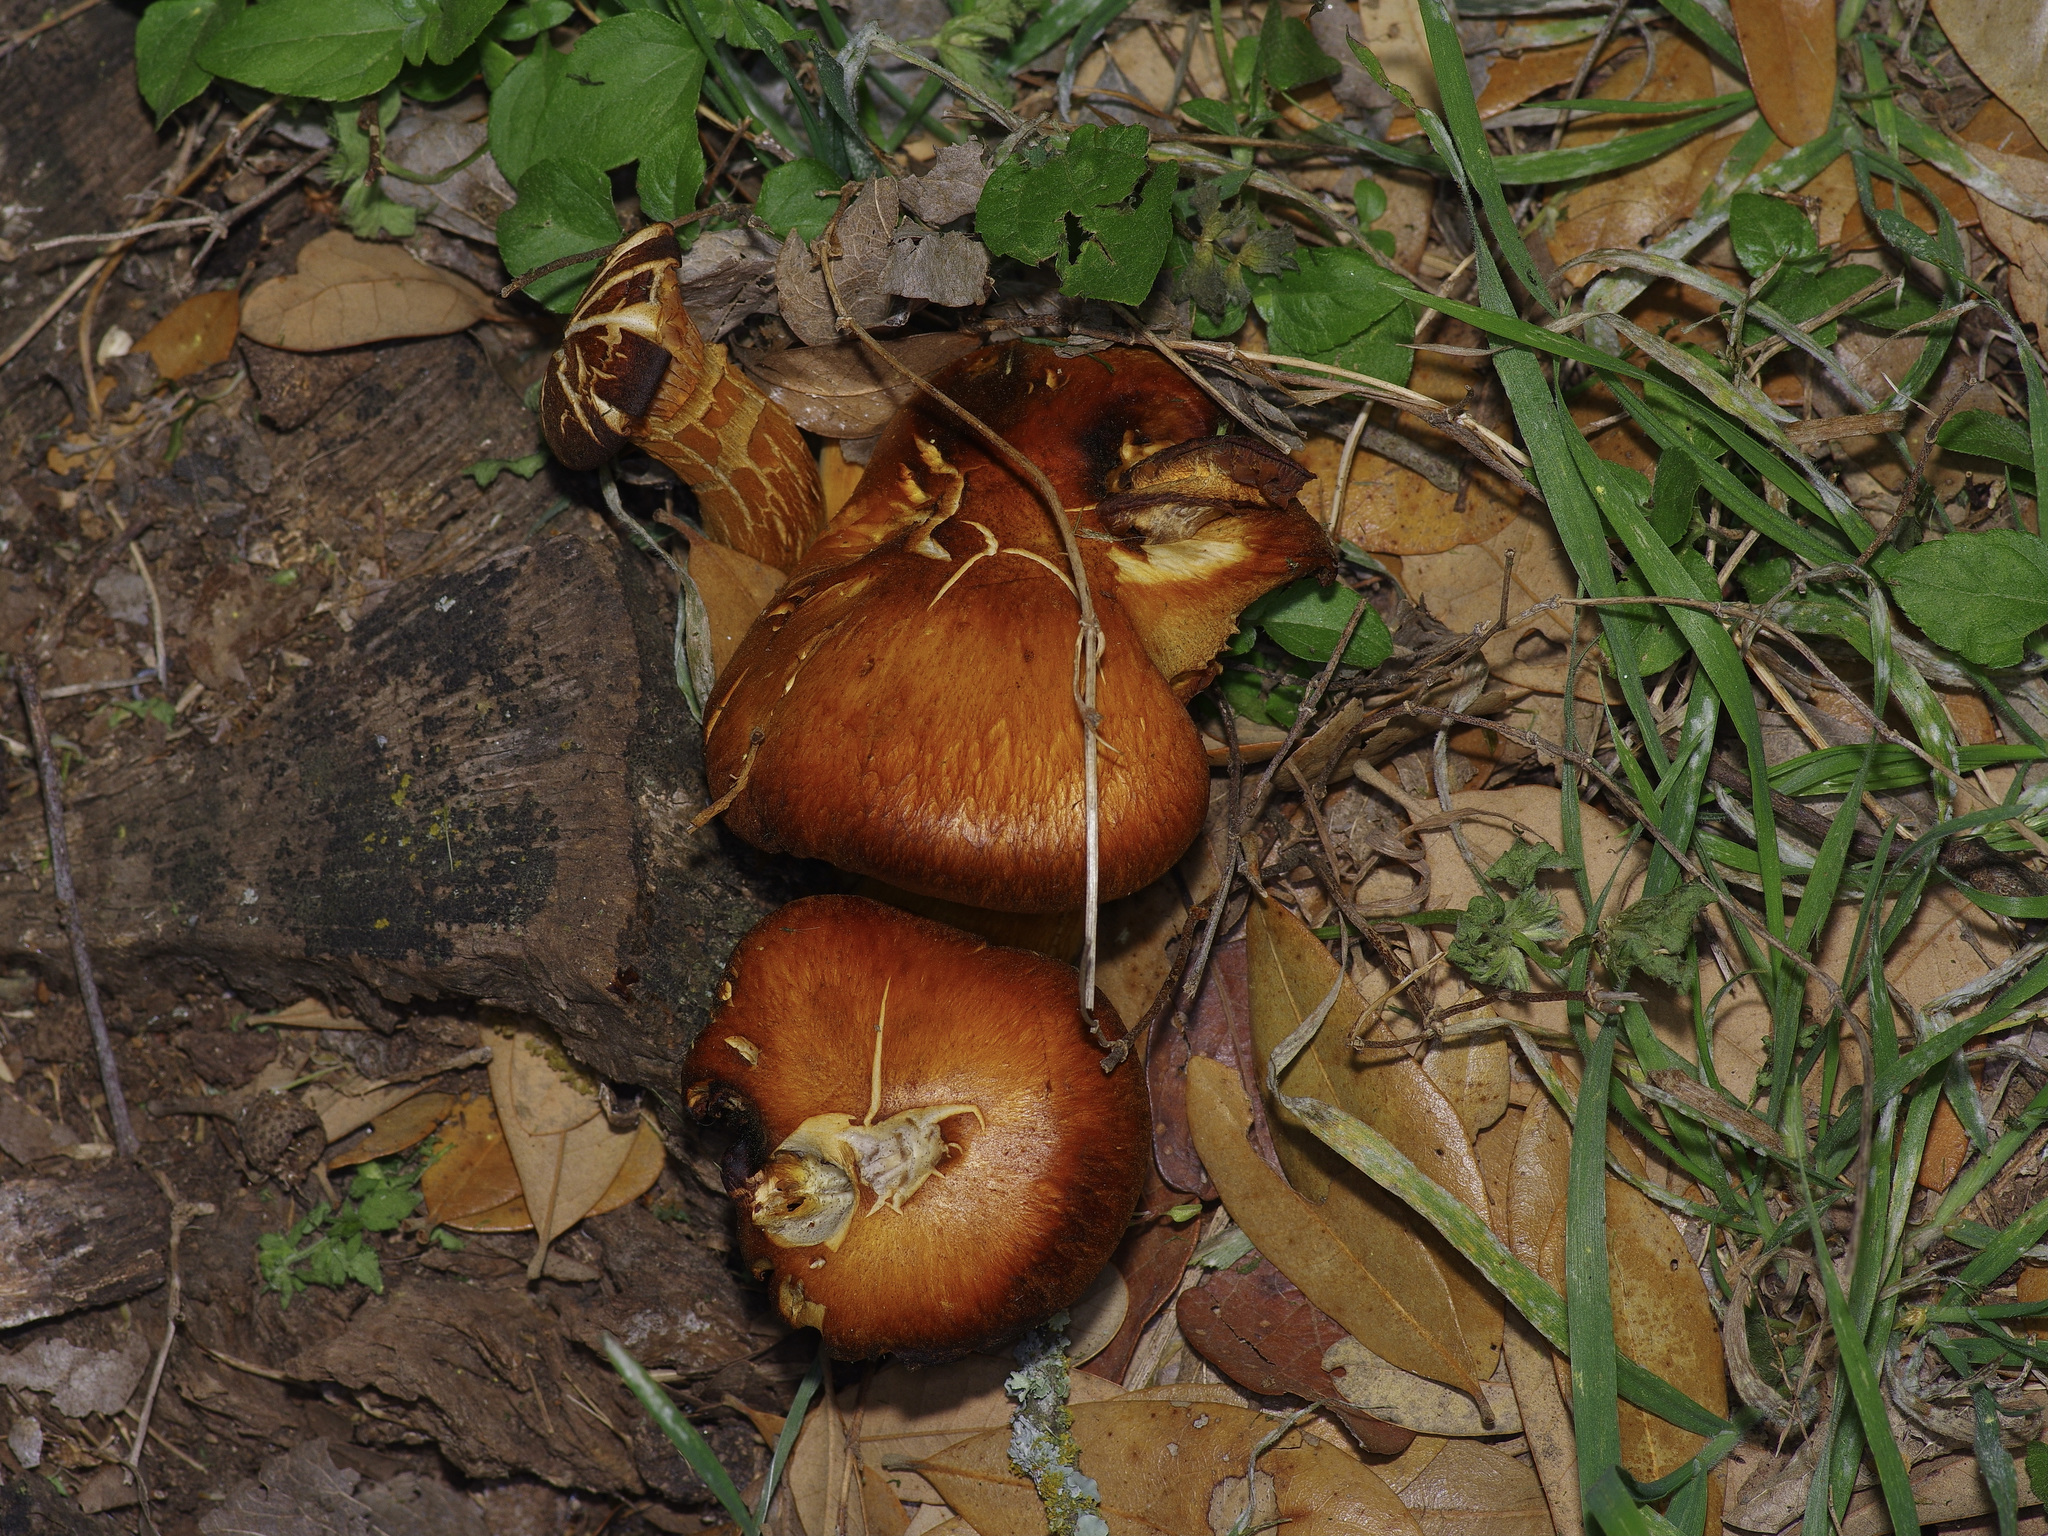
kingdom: Fungi
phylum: Basidiomycota
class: Agaricomycetes
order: Agaricales
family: Omphalotaceae
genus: Omphalotus
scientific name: Omphalotus subilludens
